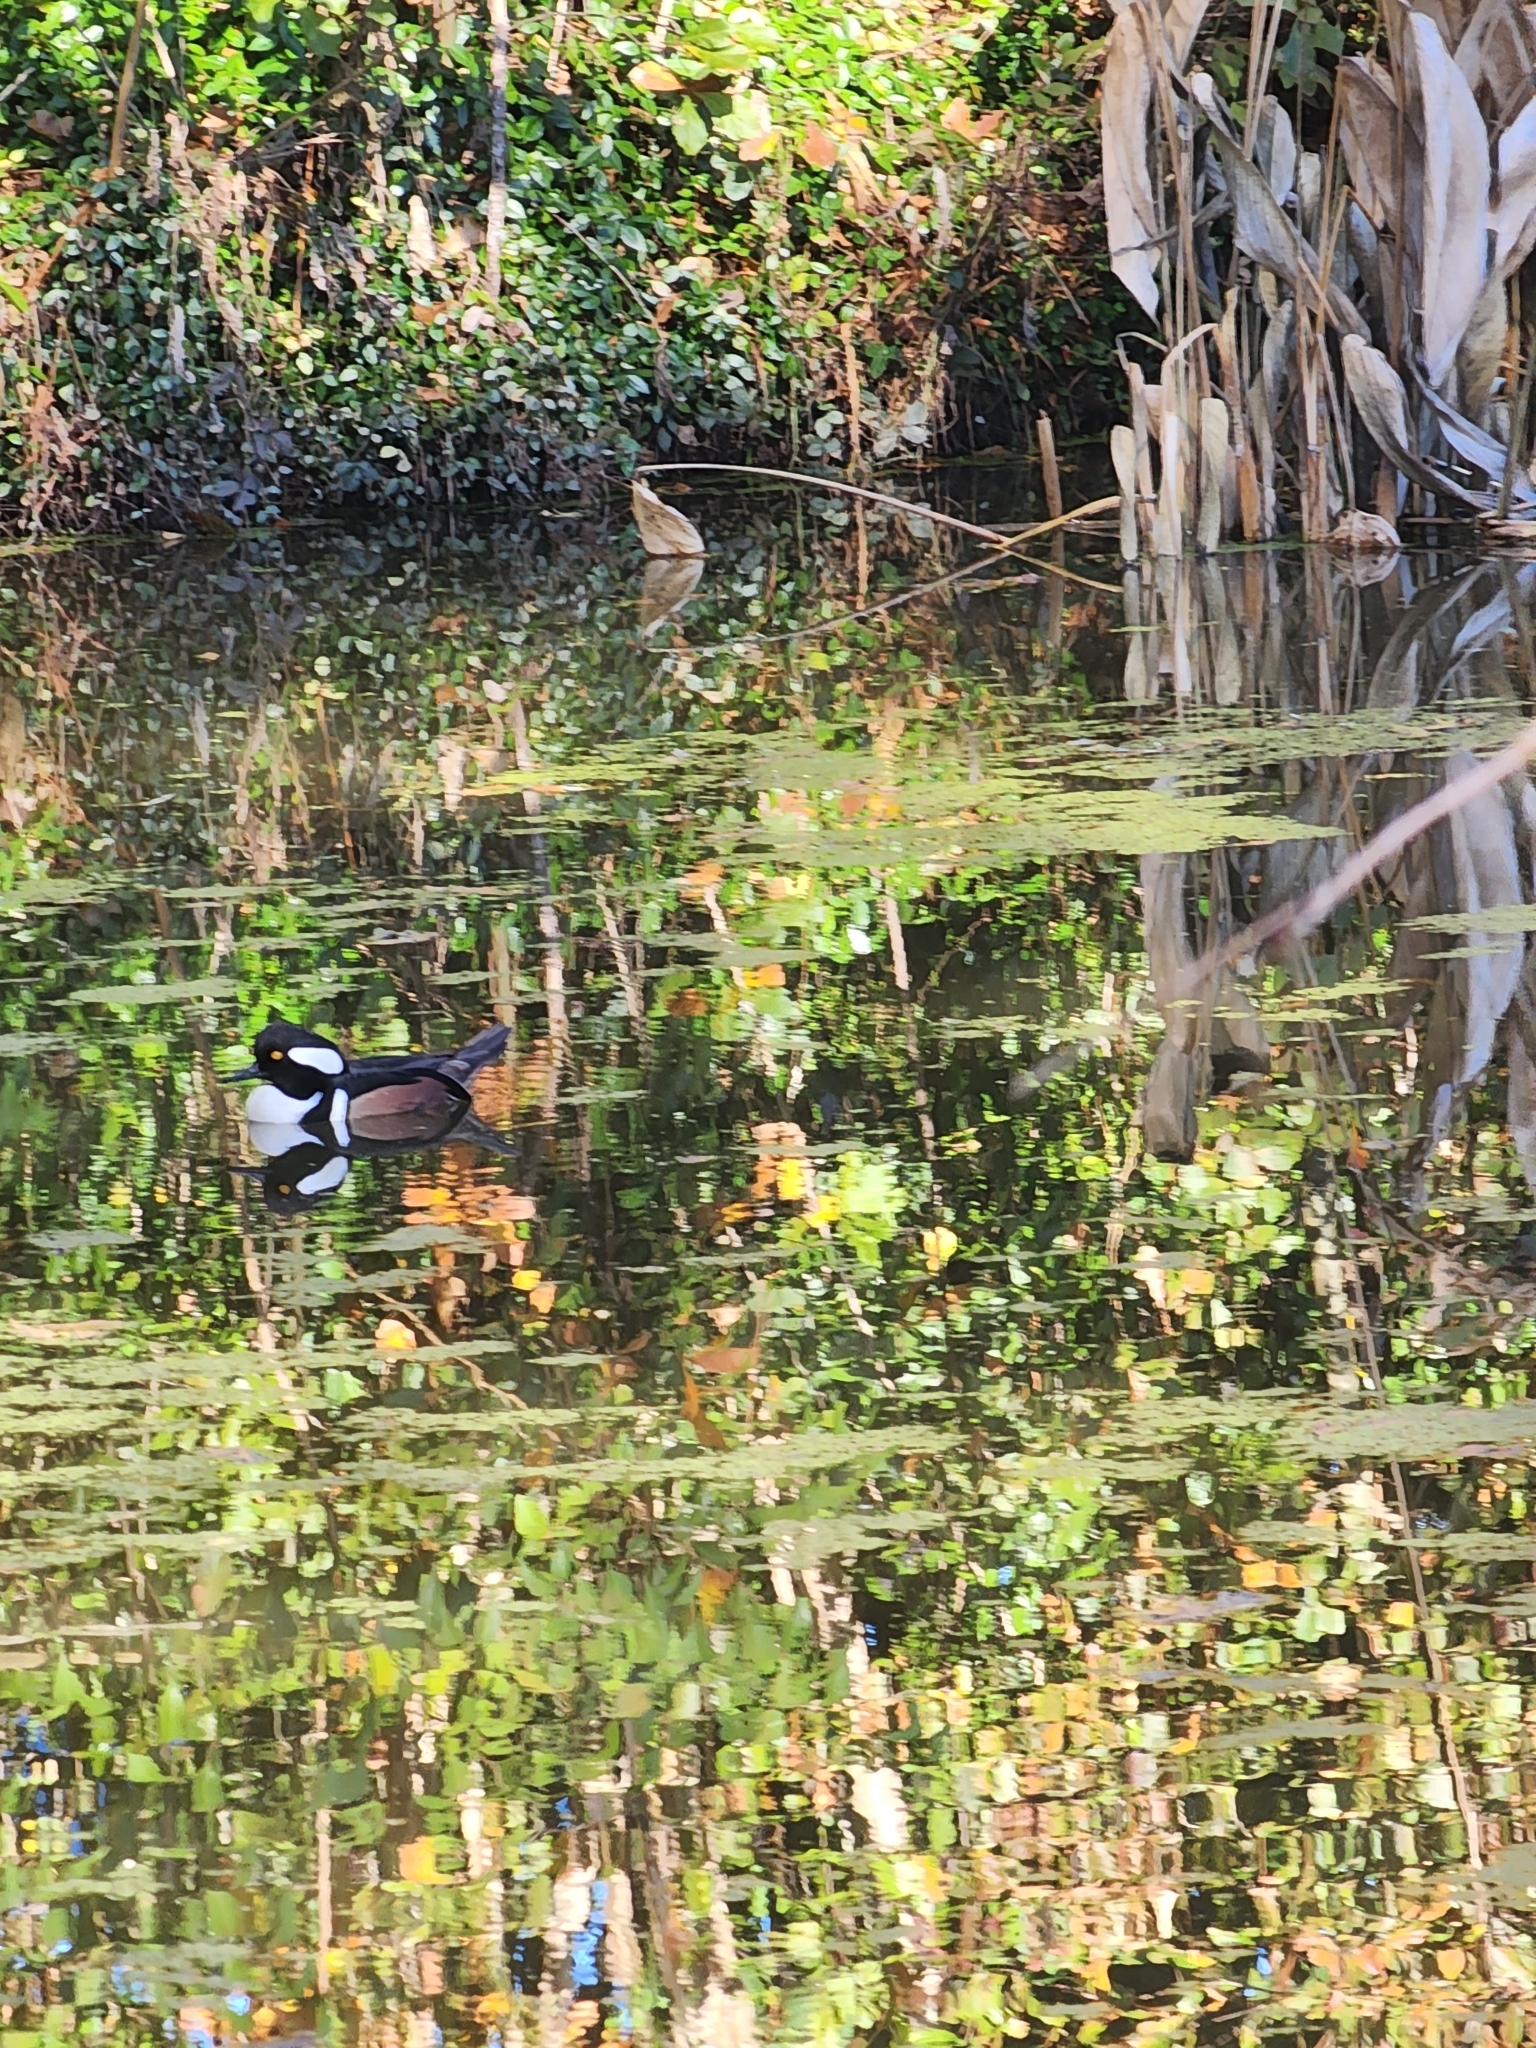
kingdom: Animalia
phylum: Chordata
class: Aves
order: Anseriformes
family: Anatidae
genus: Lophodytes
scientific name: Lophodytes cucullatus
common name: Hooded merganser
